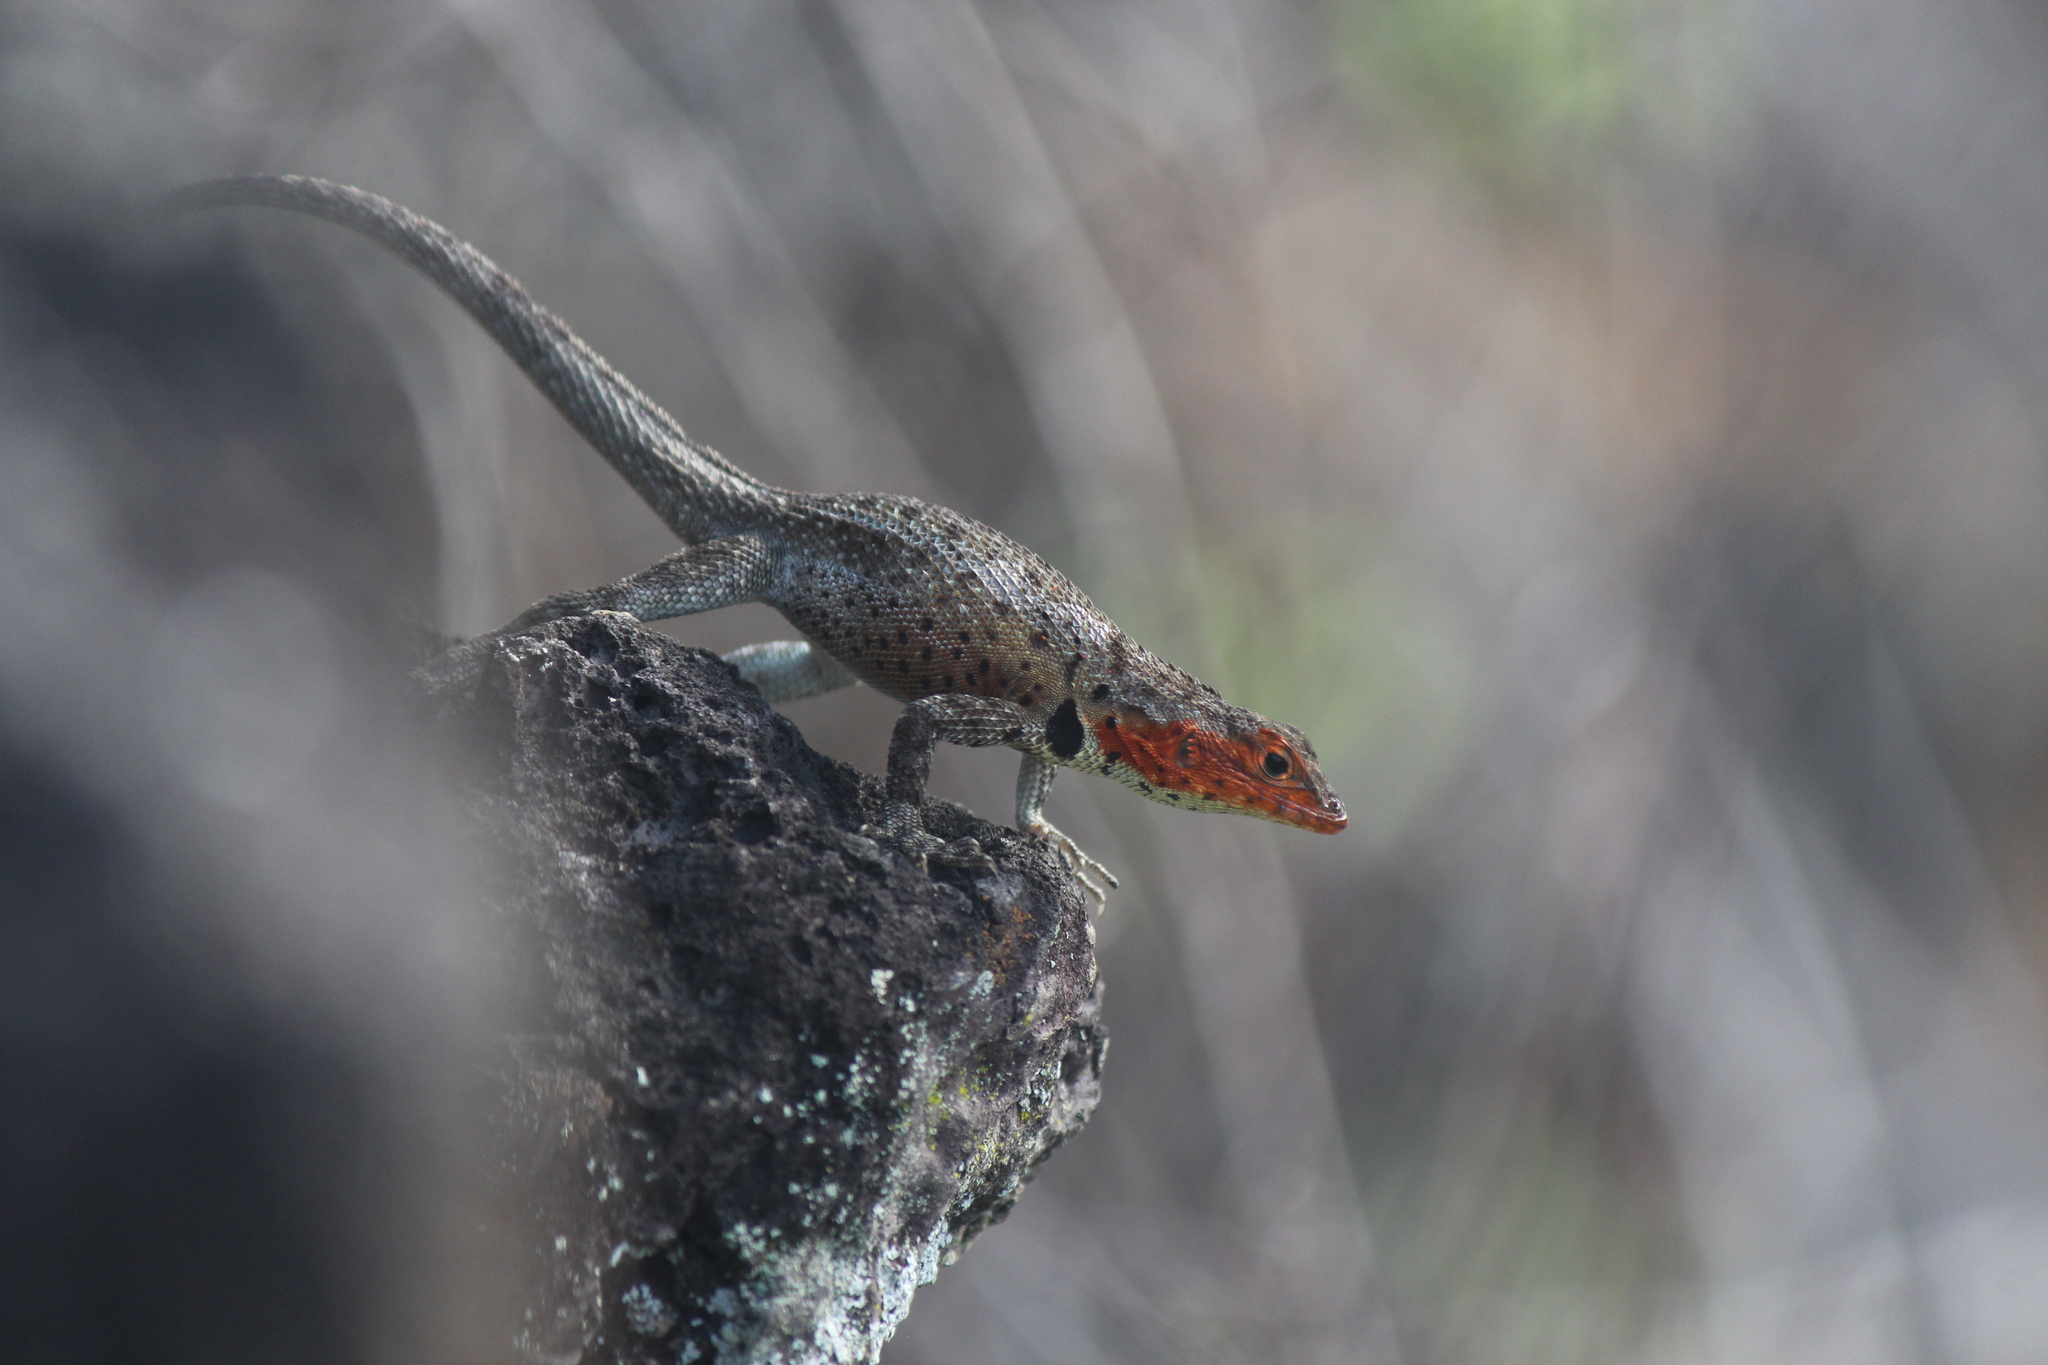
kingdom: Animalia
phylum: Chordata
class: Squamata
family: Tropiduridae
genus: Microlophus
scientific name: Microlophus albemarlensis
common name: Galapagos lava lizard
